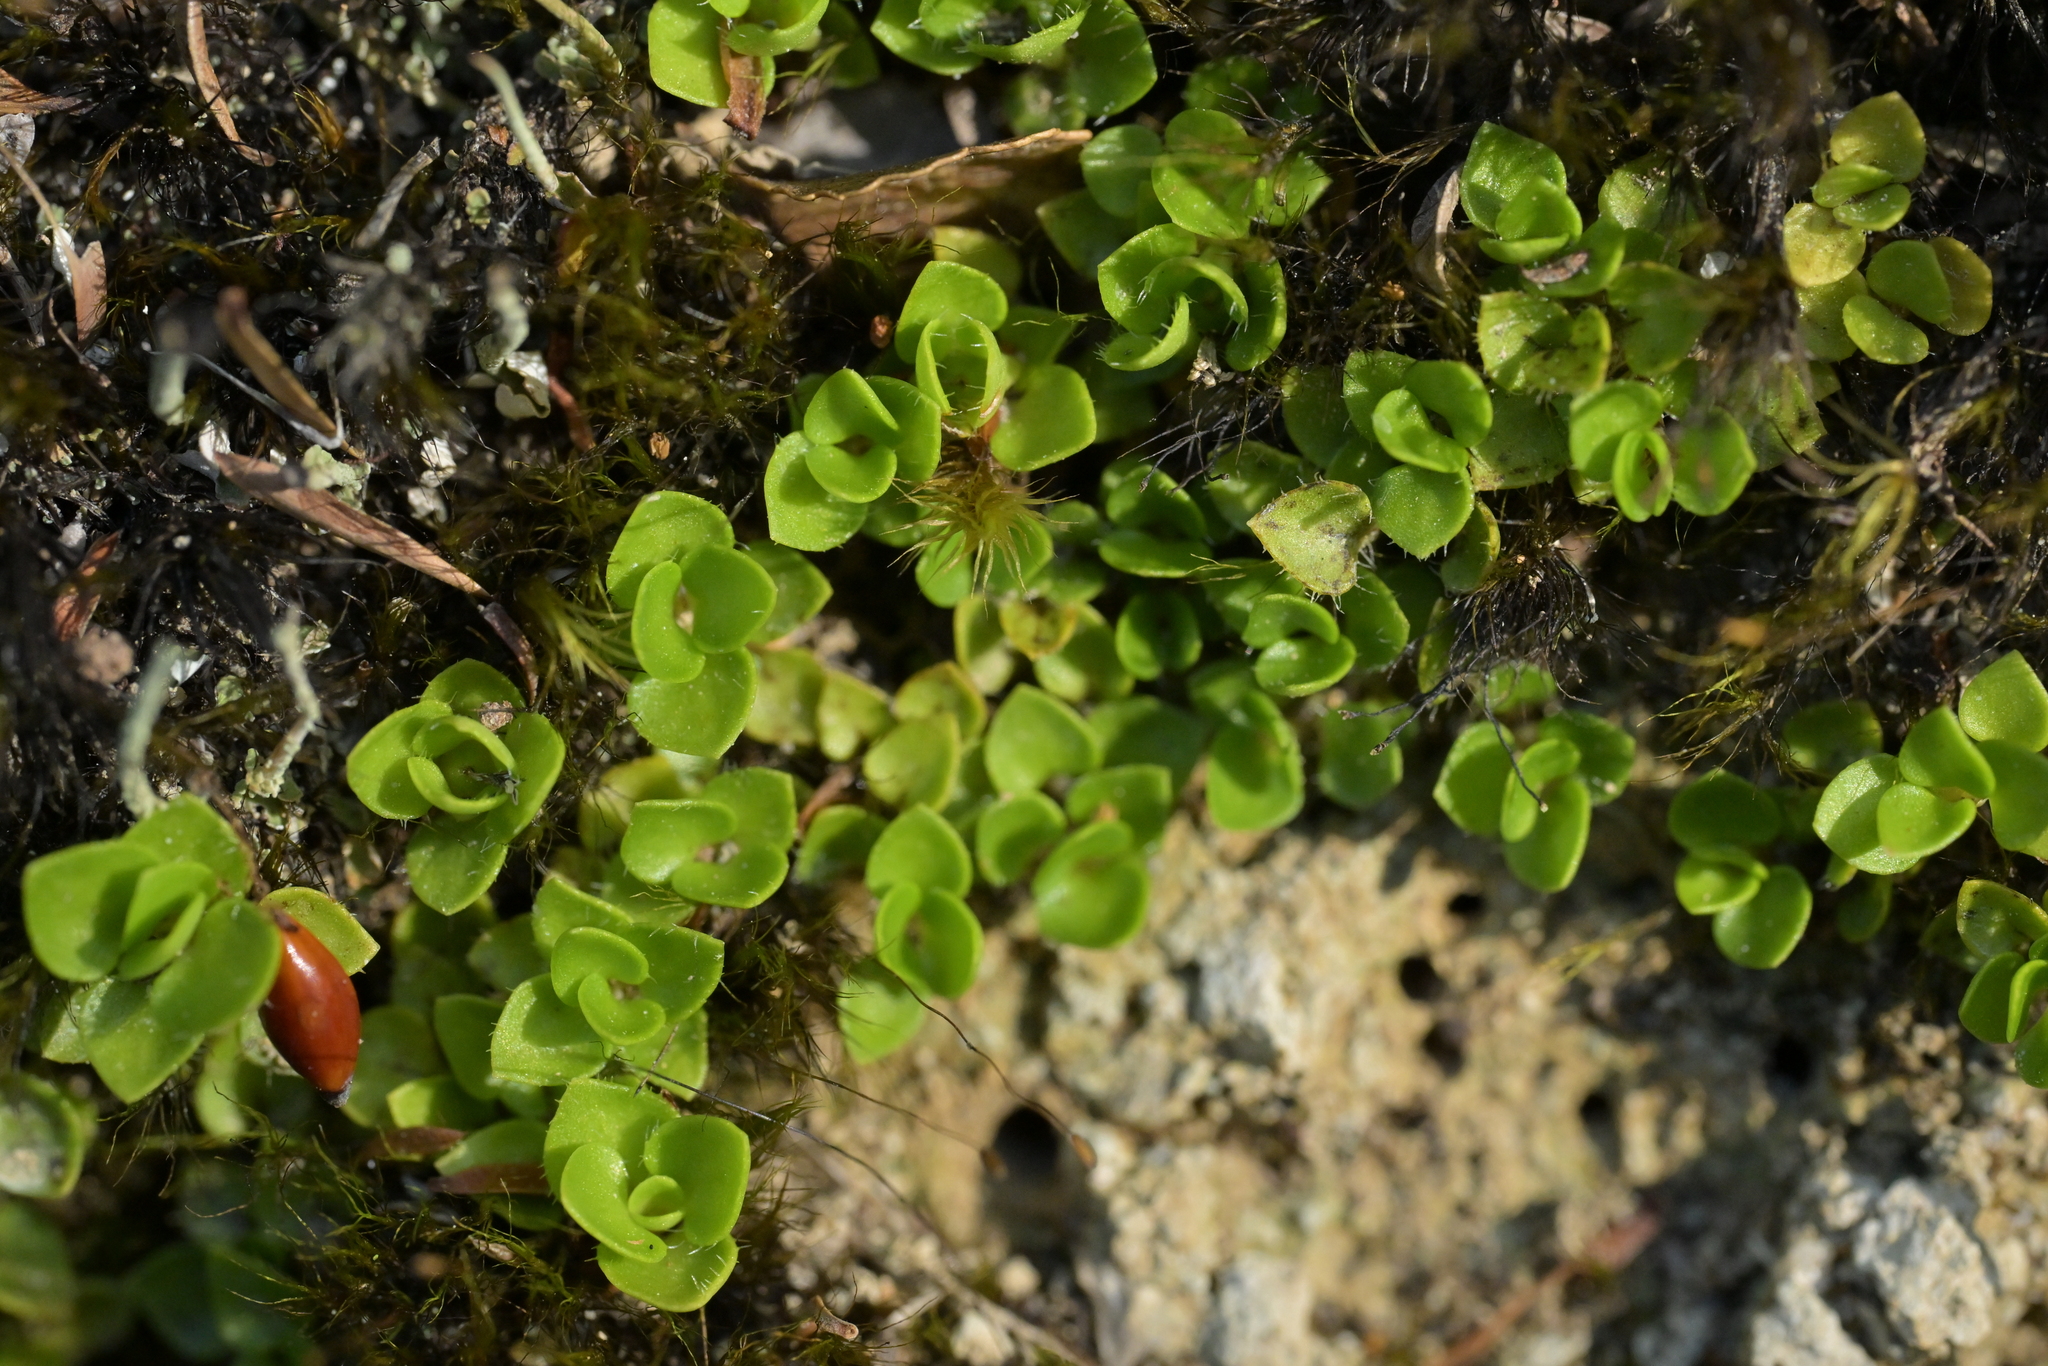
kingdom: Plantae
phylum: Tracheophyta
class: Magnoliopsida
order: Gentianales
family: Rubiaceae
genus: Nertera
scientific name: Nertera ciliata
